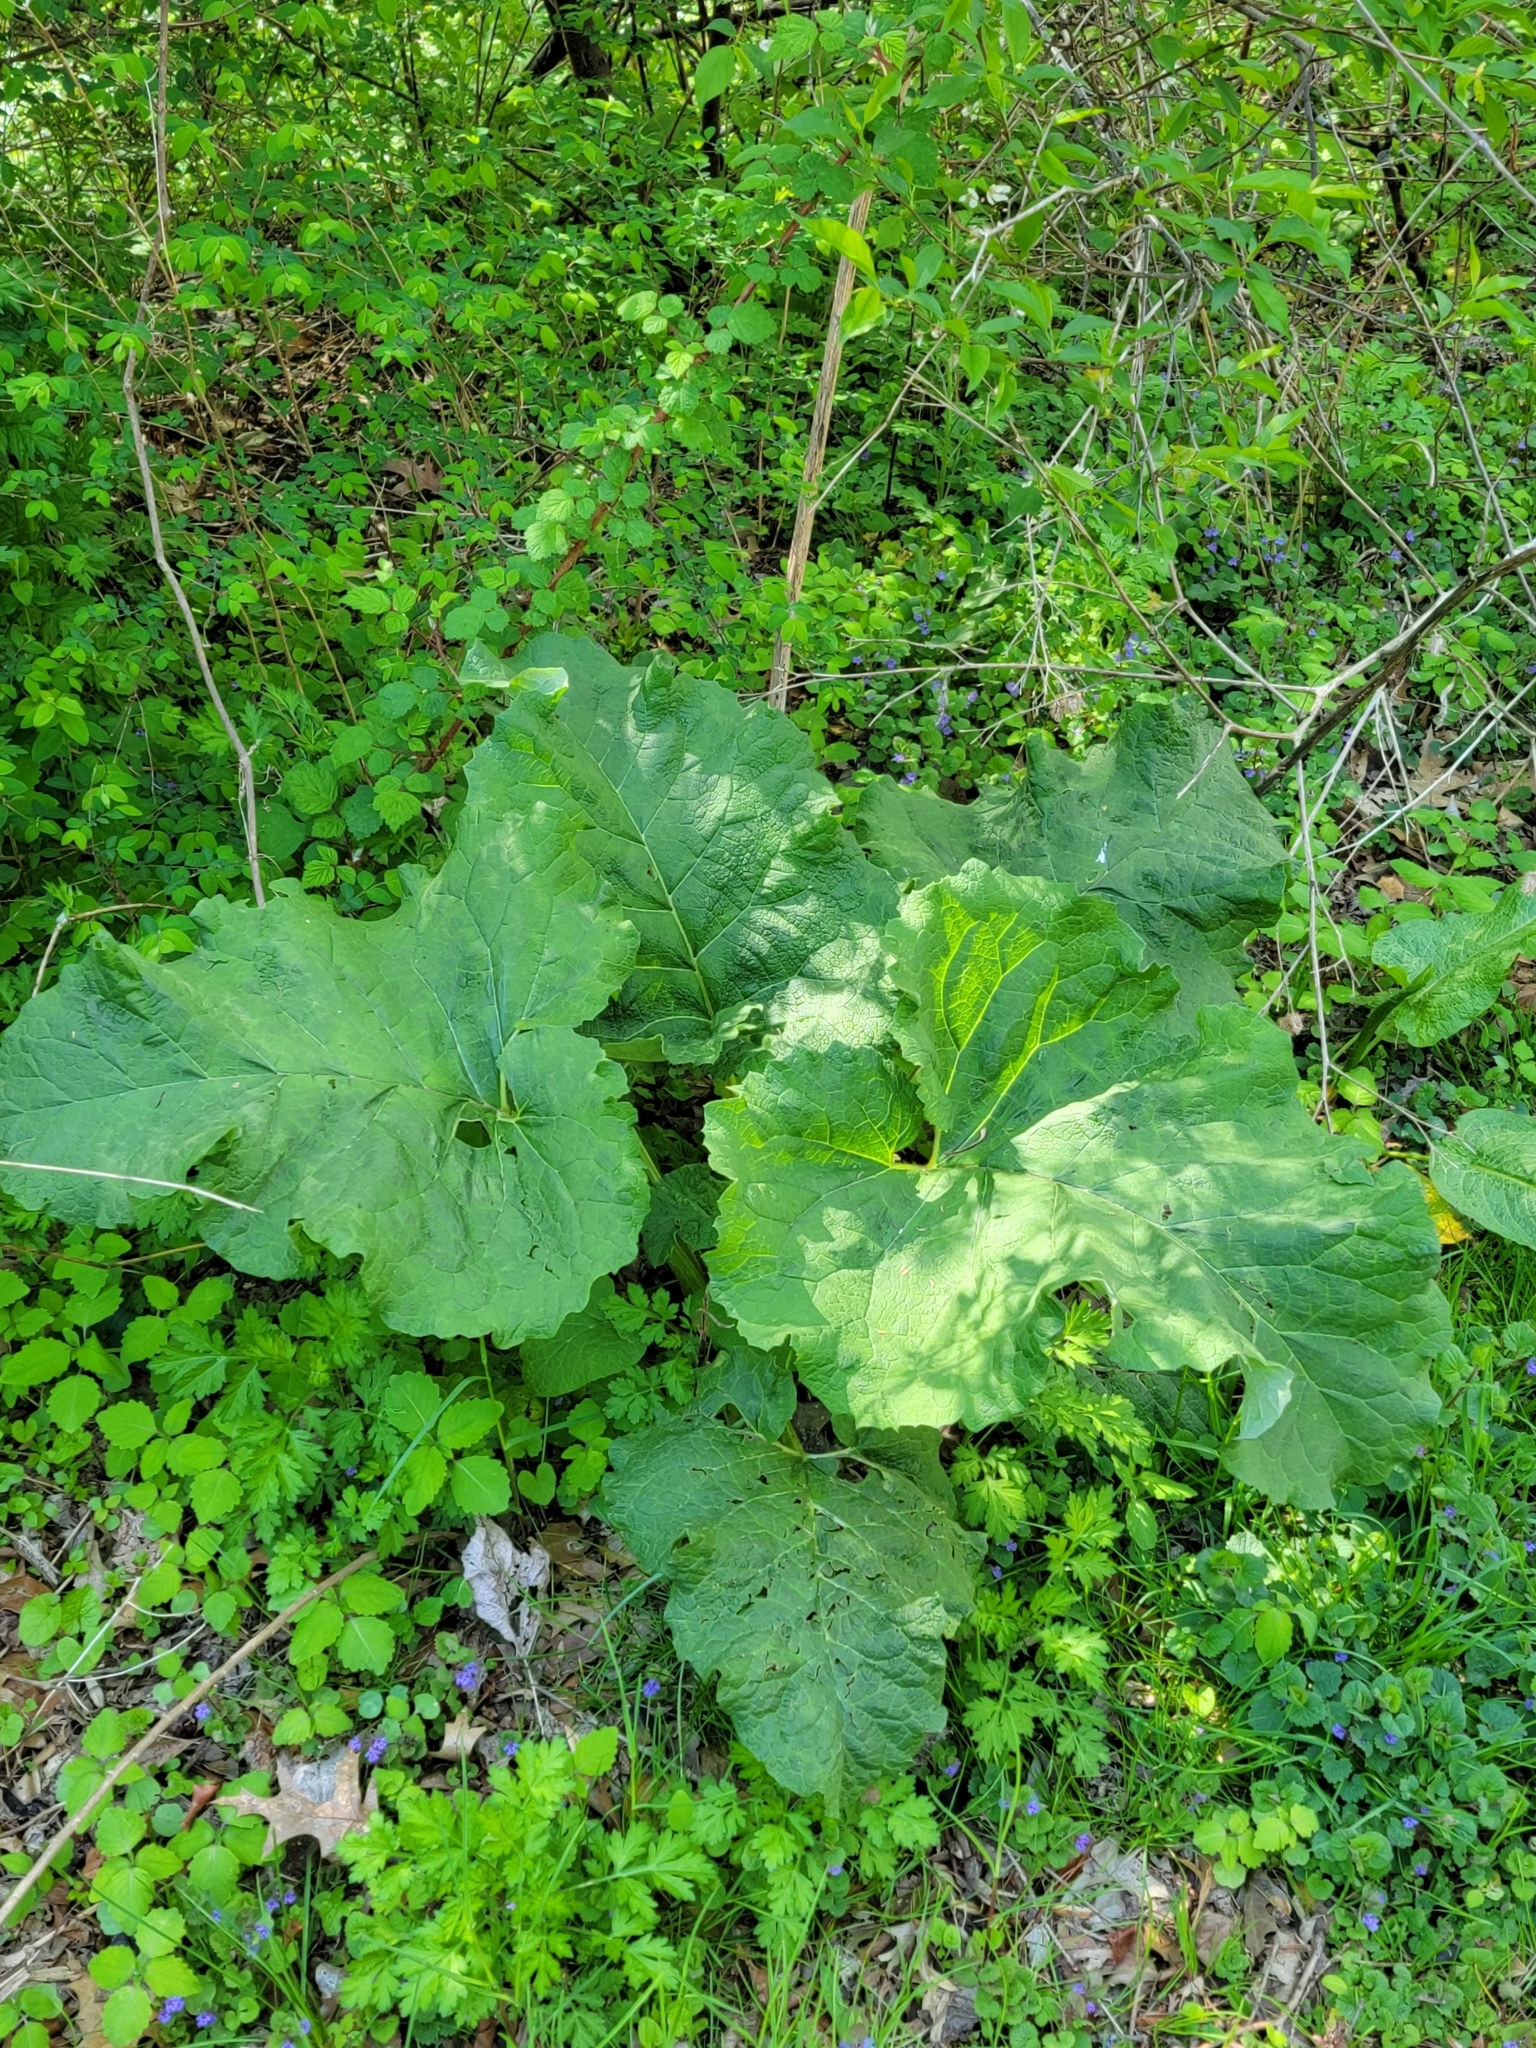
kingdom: Plantae
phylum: Tracheophyta
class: Magnoliopsida
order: Asterales
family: Asteraceae
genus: Arctium
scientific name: Arctium
